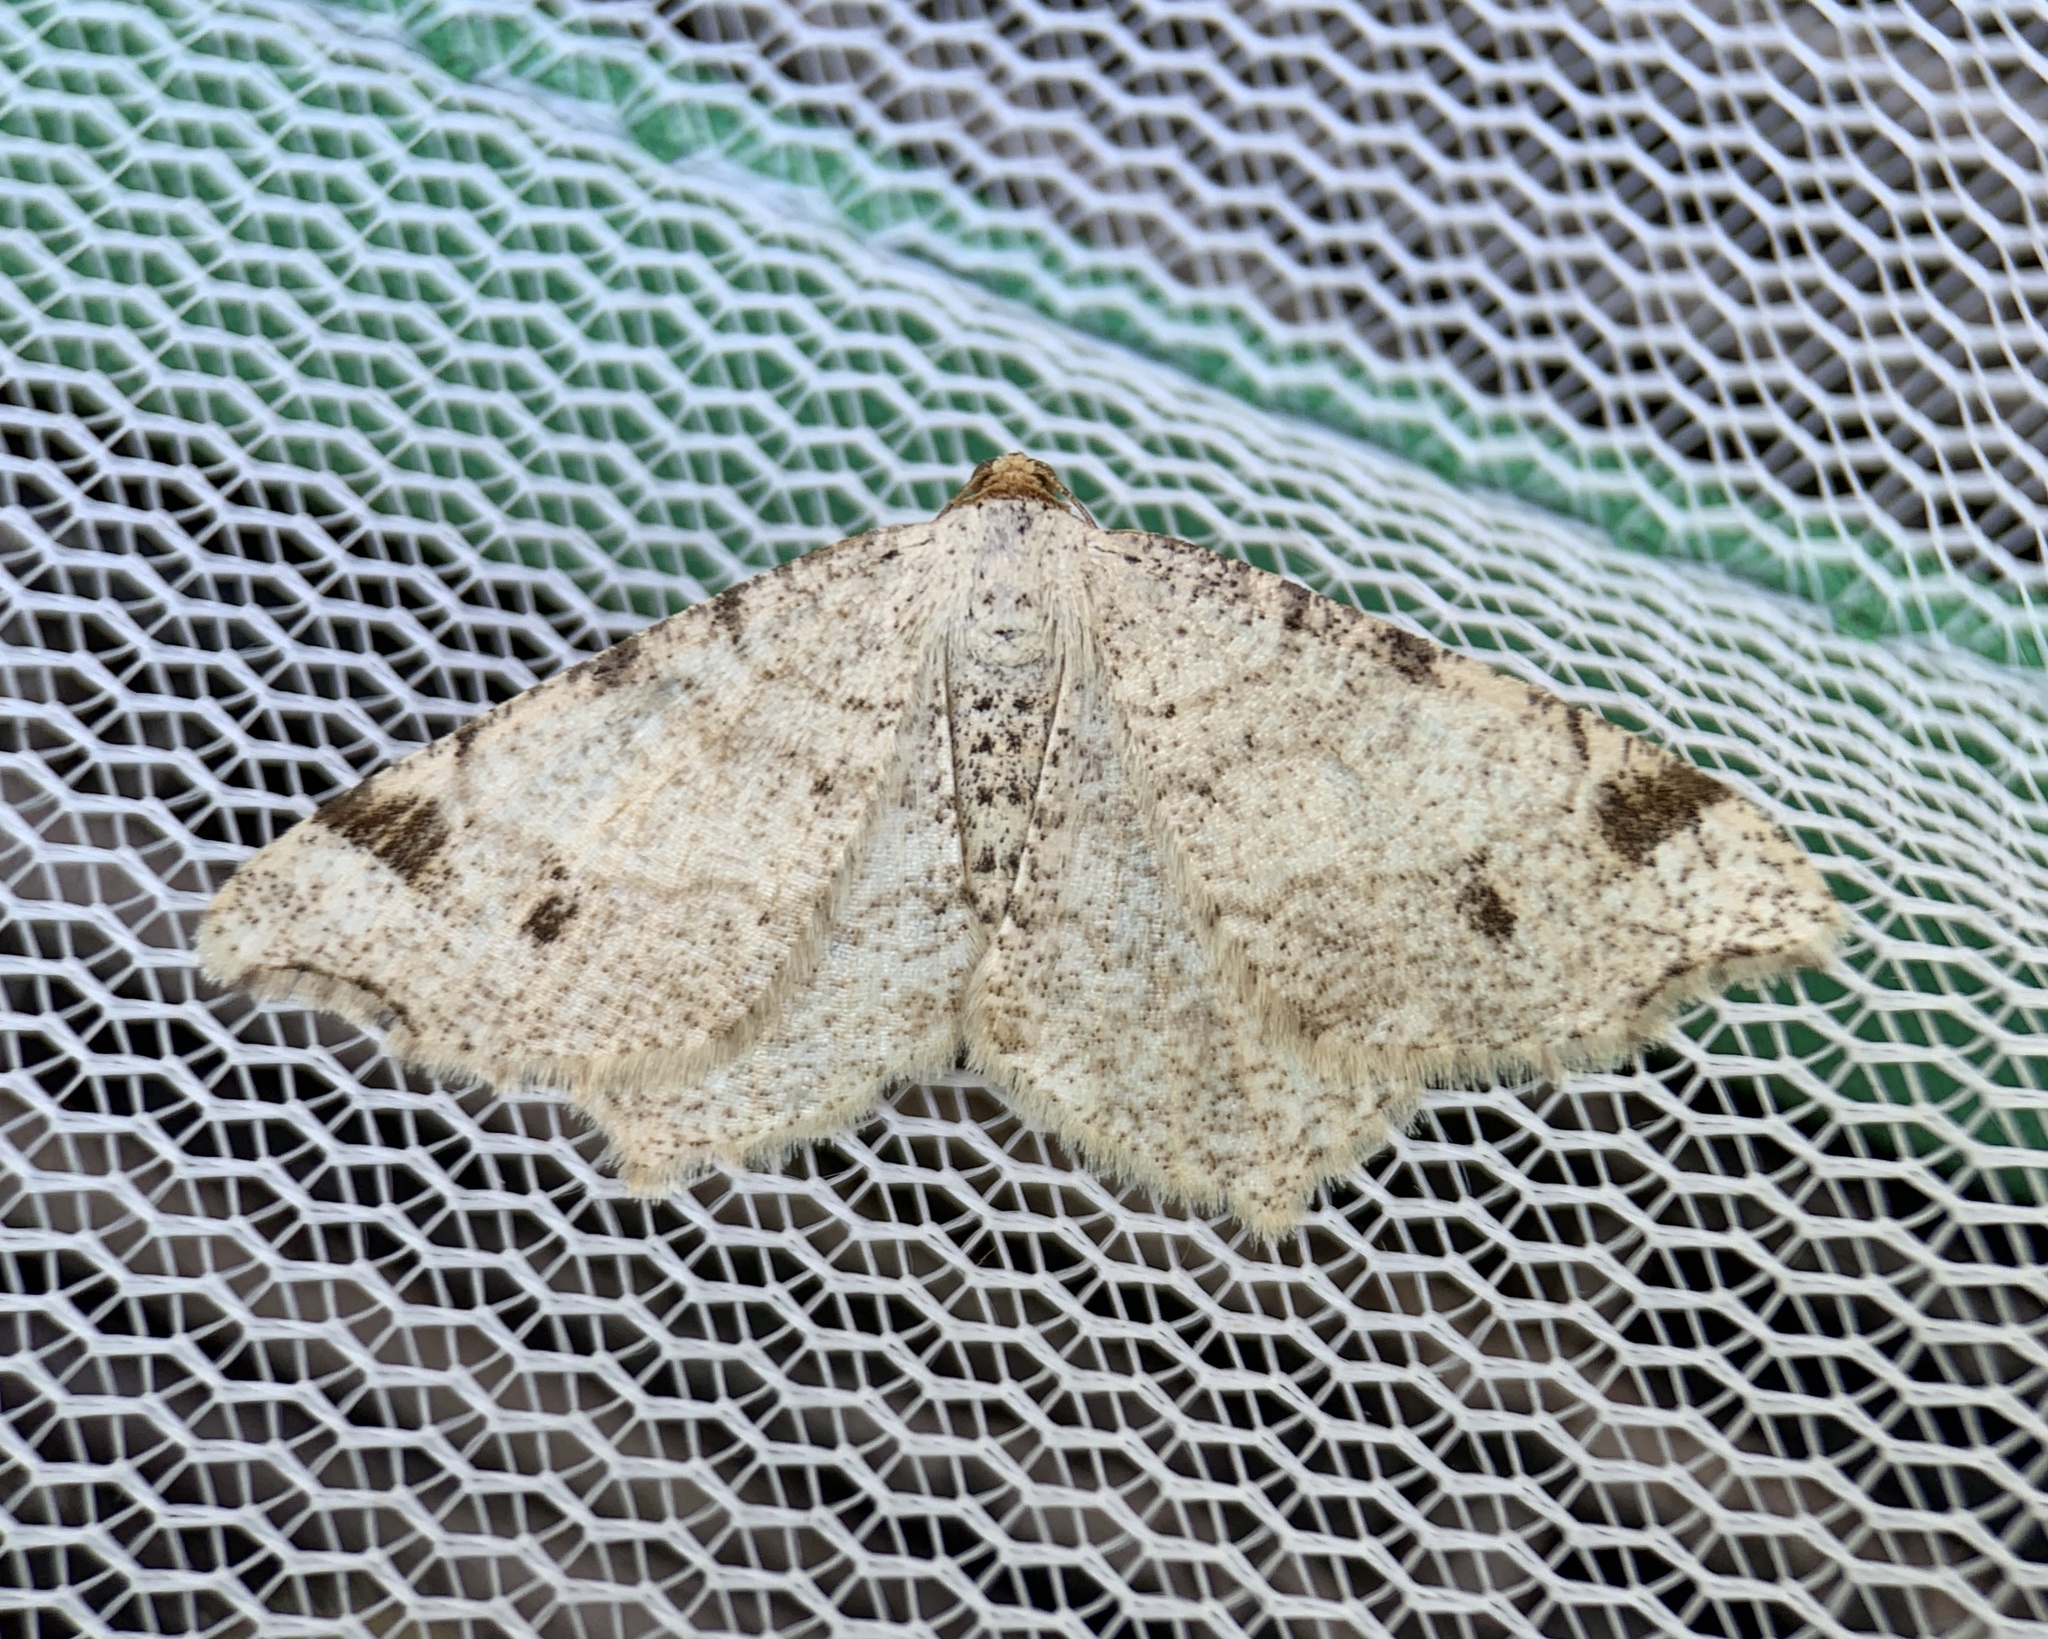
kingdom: Animalia
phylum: Arthropoda
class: Insecta
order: Lepidoptera
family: Geometridae
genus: Macaria
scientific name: Macaria bisignata
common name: Red-headed inchworm
